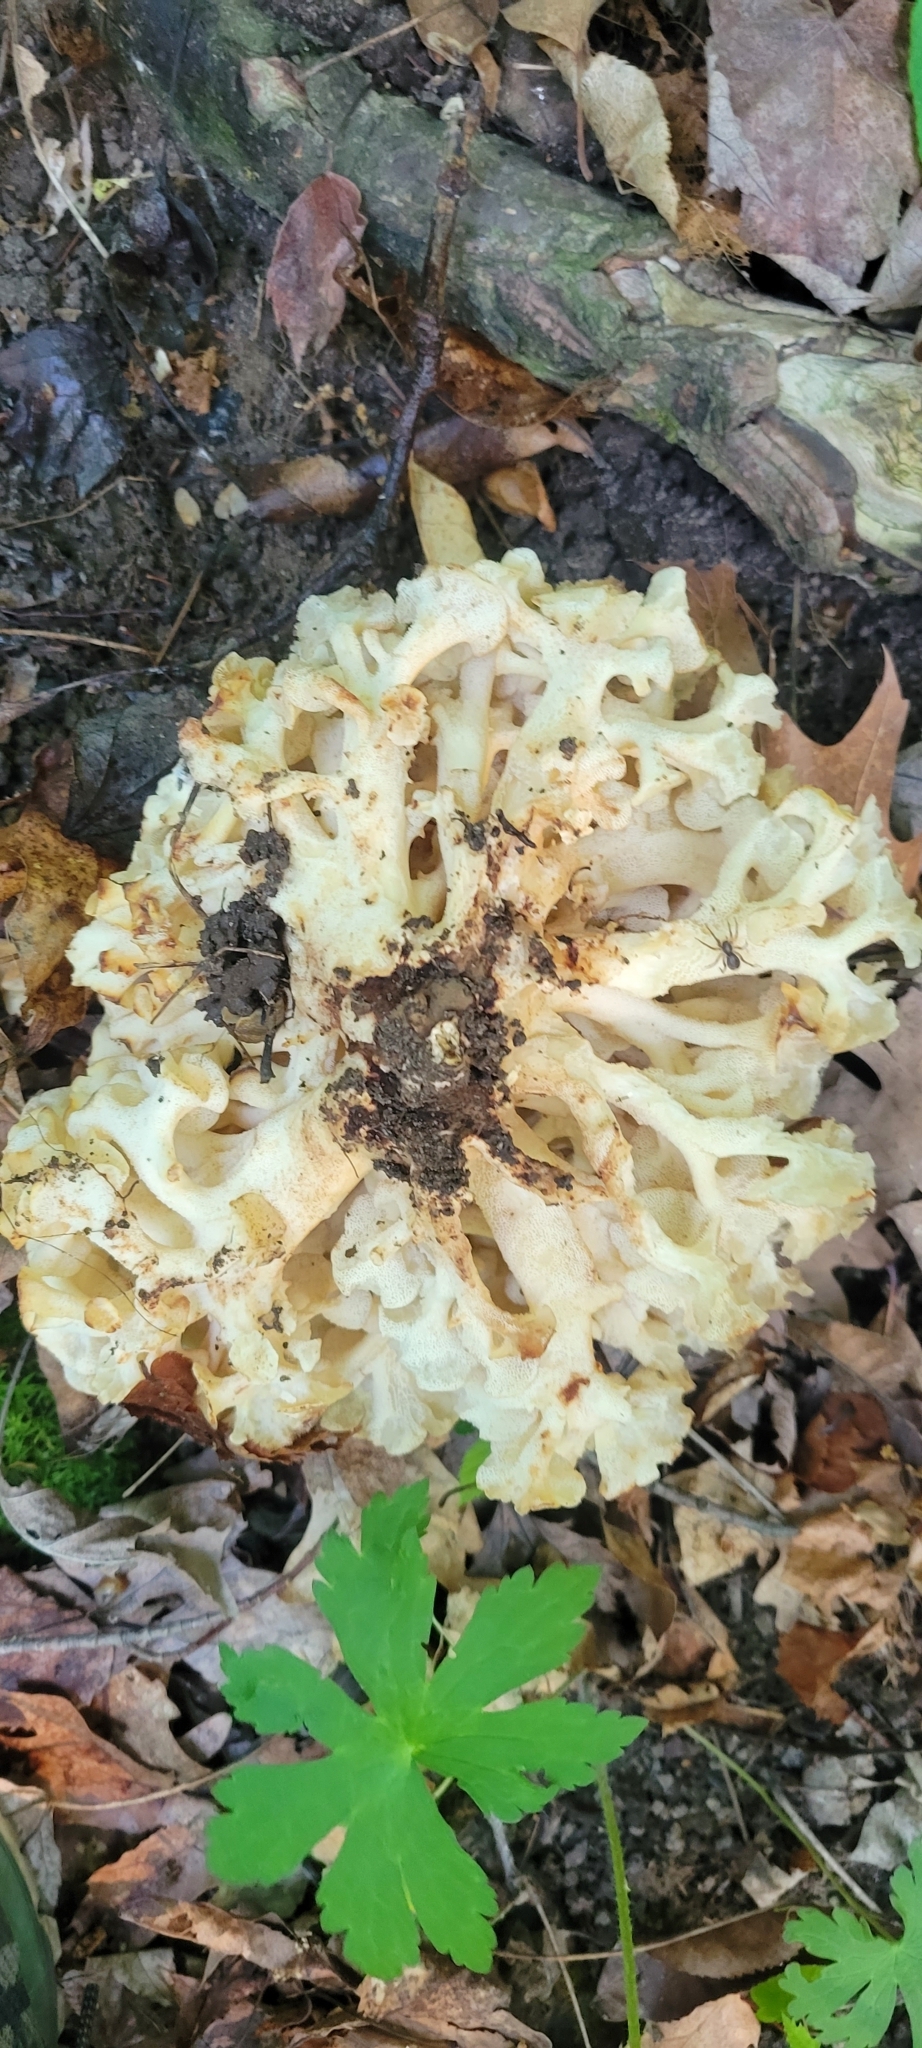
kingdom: Fungi
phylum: Basidiomycota
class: Agaricomycetes
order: Polyporales
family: Polyporaceae
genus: Polyporus
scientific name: Polyporus umbellatus
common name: Umbrella polypore
